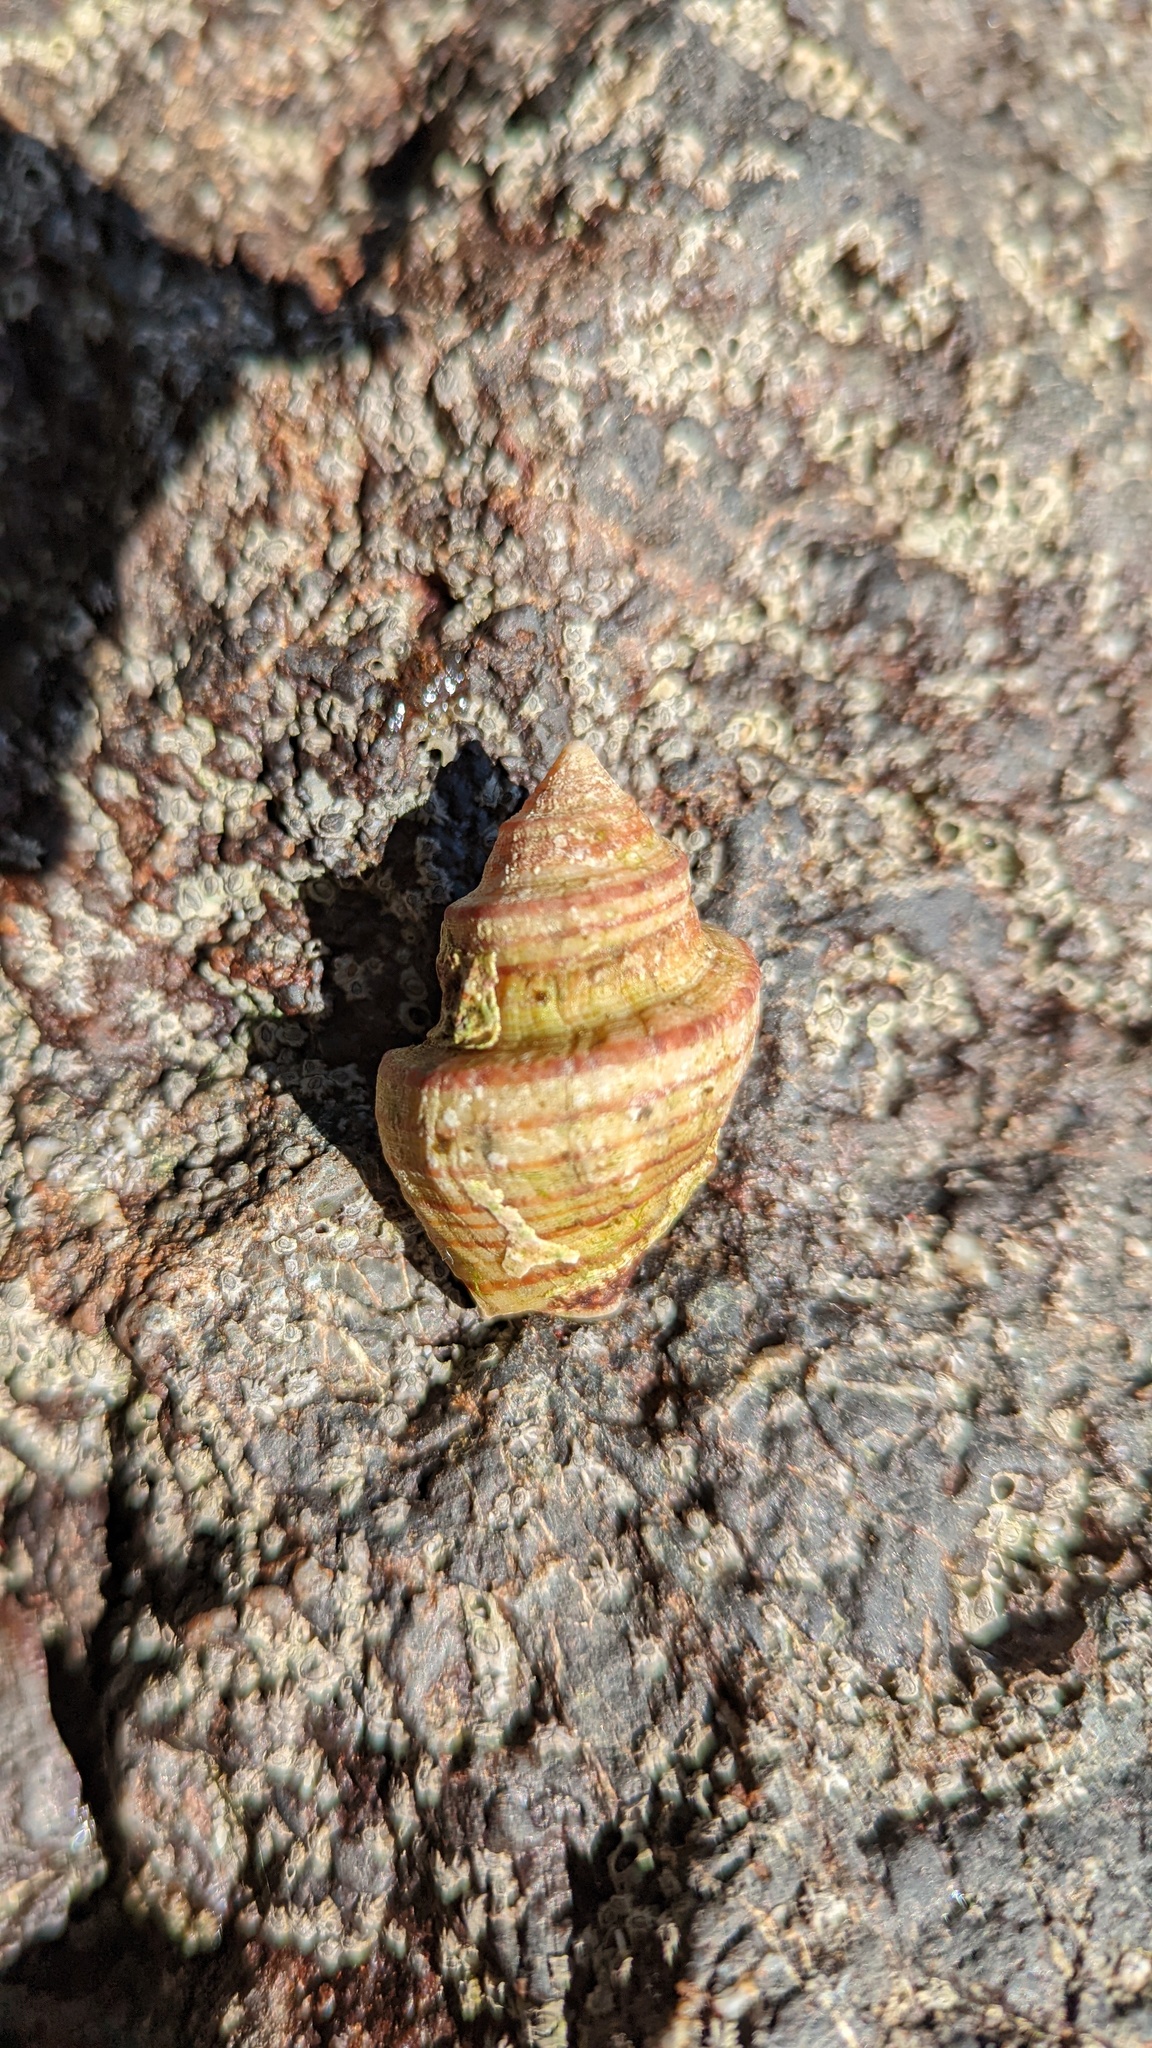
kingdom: Animalia
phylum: Mollusca
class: Gastropoda
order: Neogastropoda
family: Fasciolariidae
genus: Opeatostoma
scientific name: Opeatostoma pseudodon
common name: Thorn latirus
